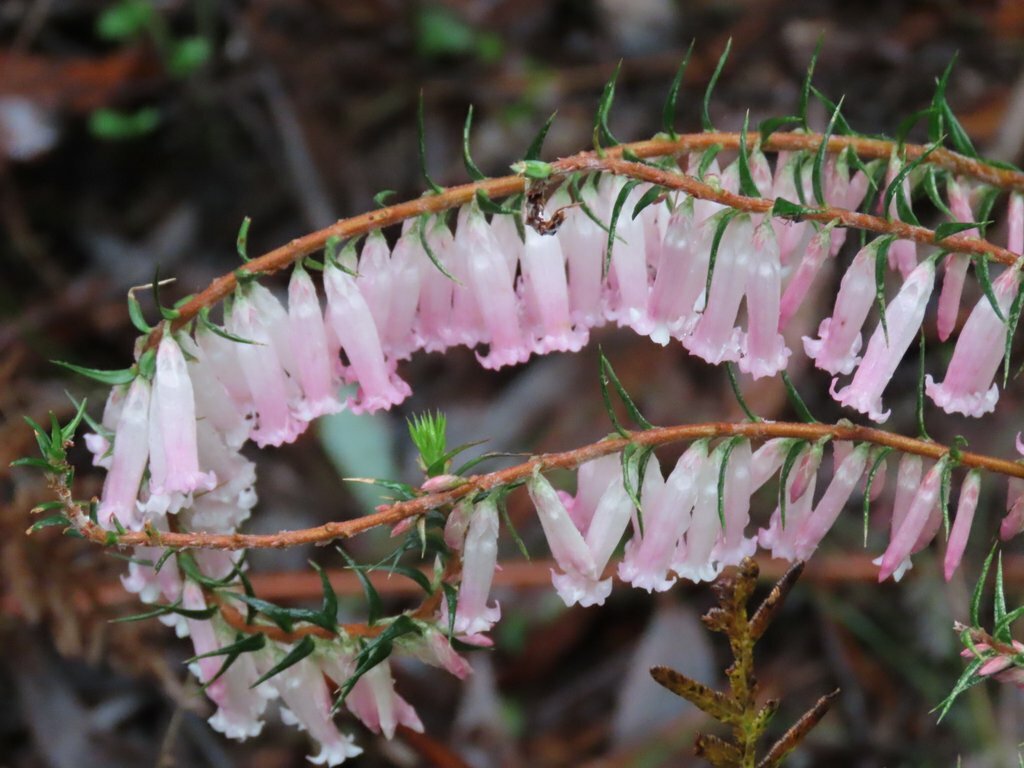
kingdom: Plantae
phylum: Tracheophyta
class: Magnoliopsida
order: Ericales
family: Ericaceae
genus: Epacris
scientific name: Epacris impressa
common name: Common-heath
